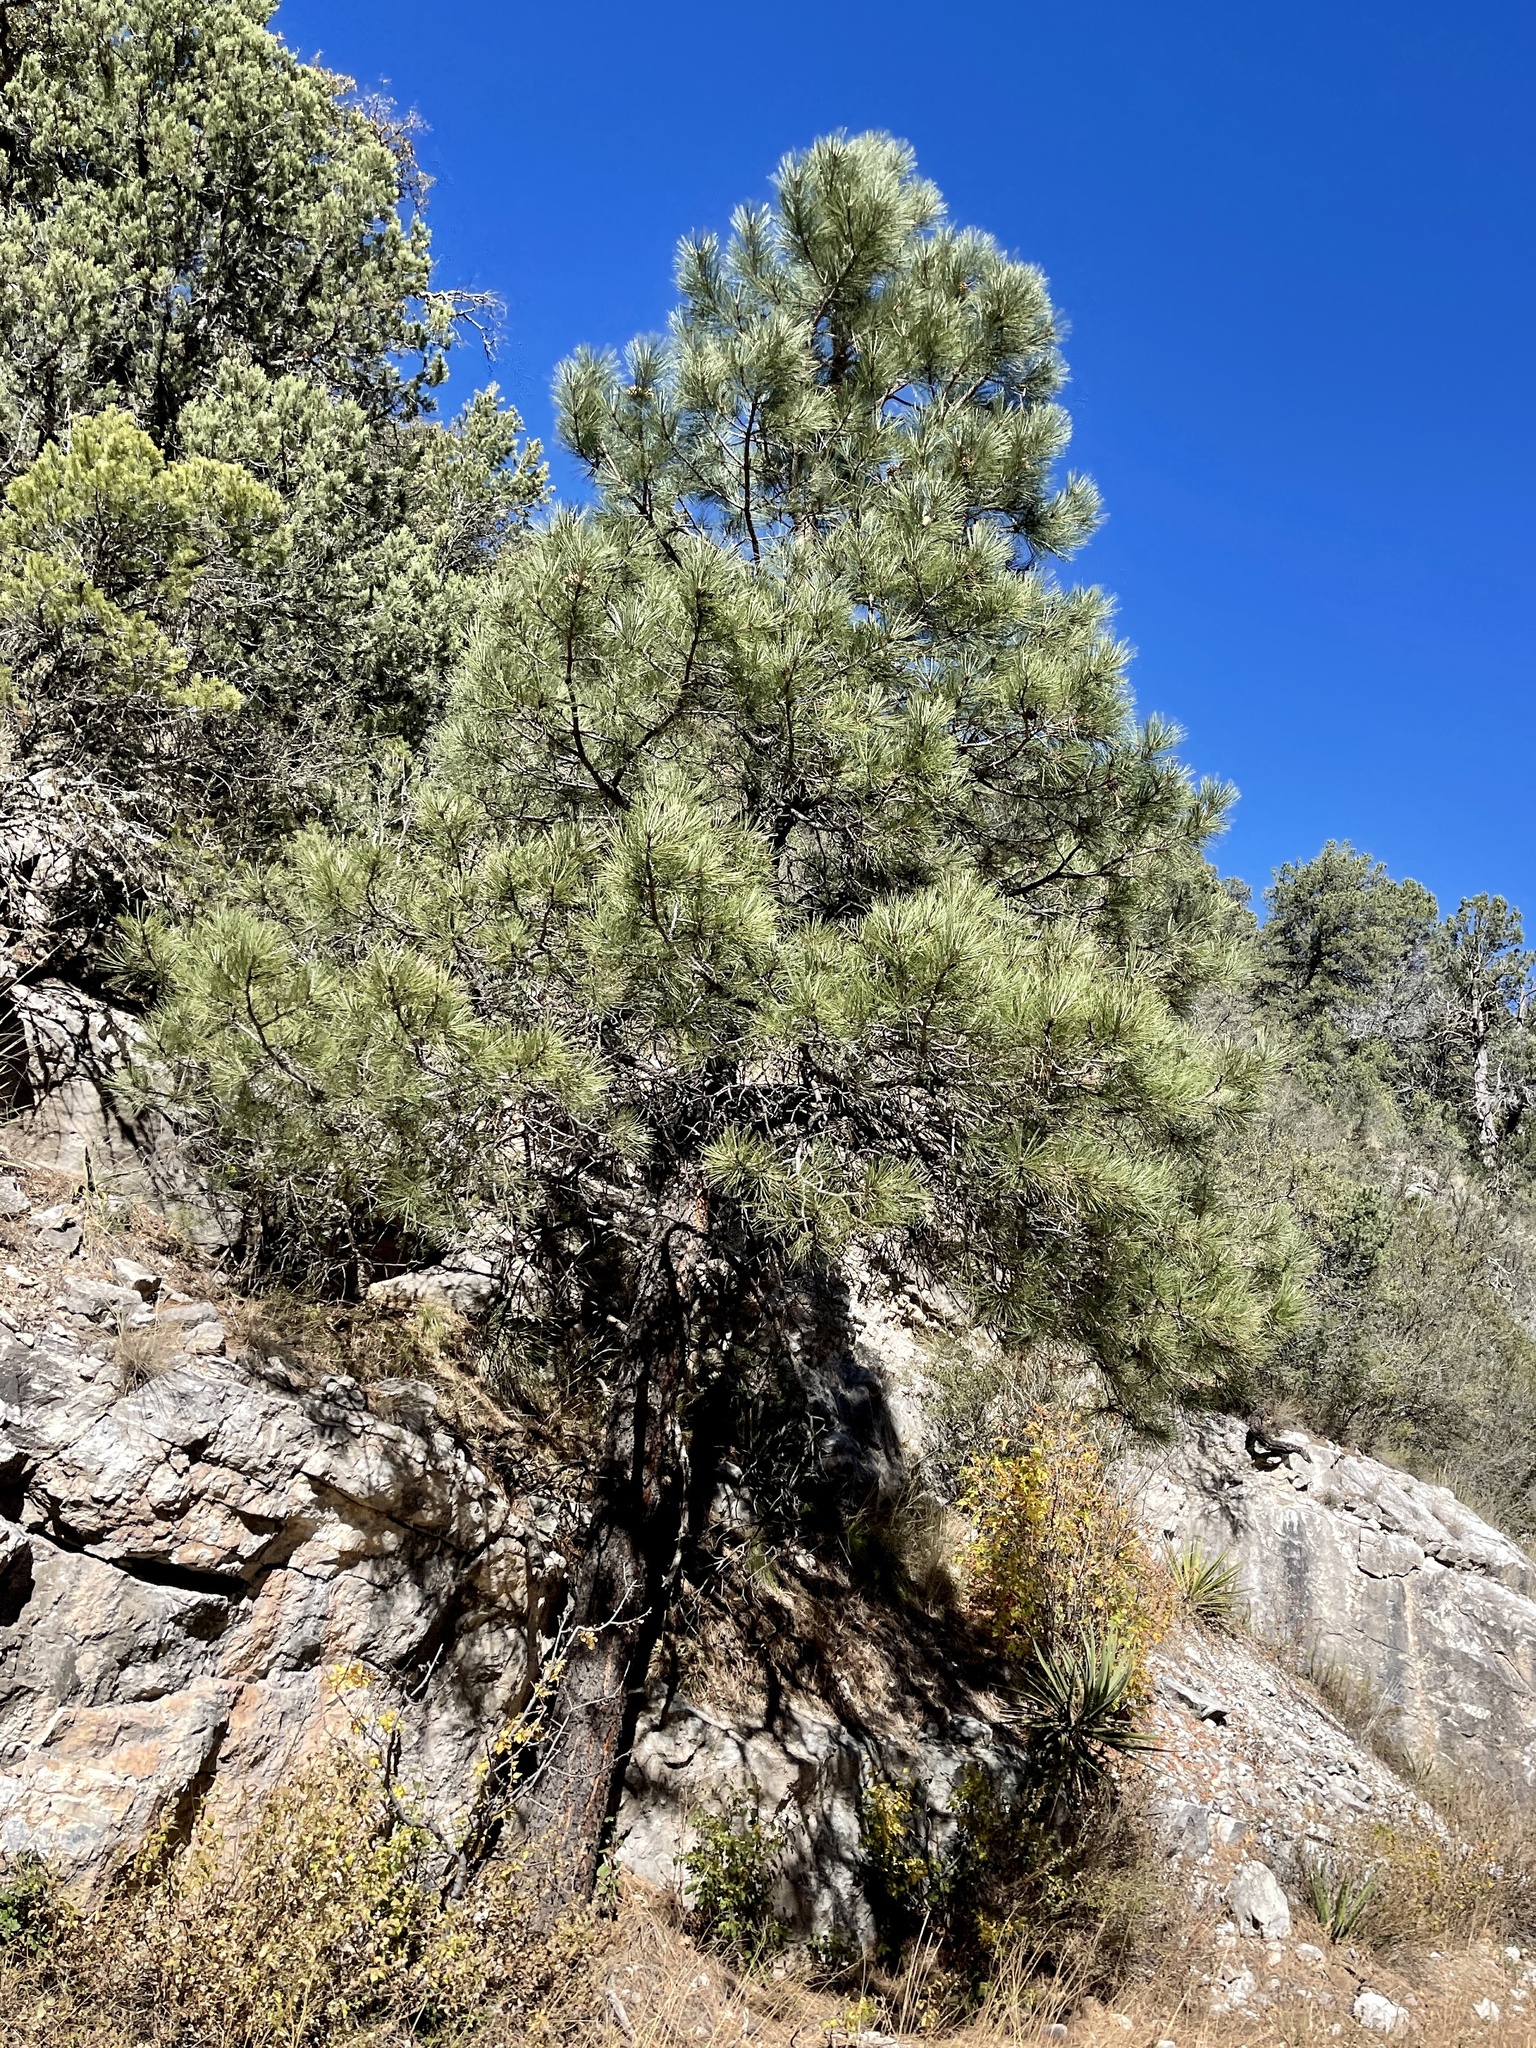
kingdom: Plantae
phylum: Tracheophyta
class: Pinopsida
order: Pinales
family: Pinaceae
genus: Pinus
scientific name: Pinus ponderosa
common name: Western yellow-pine
